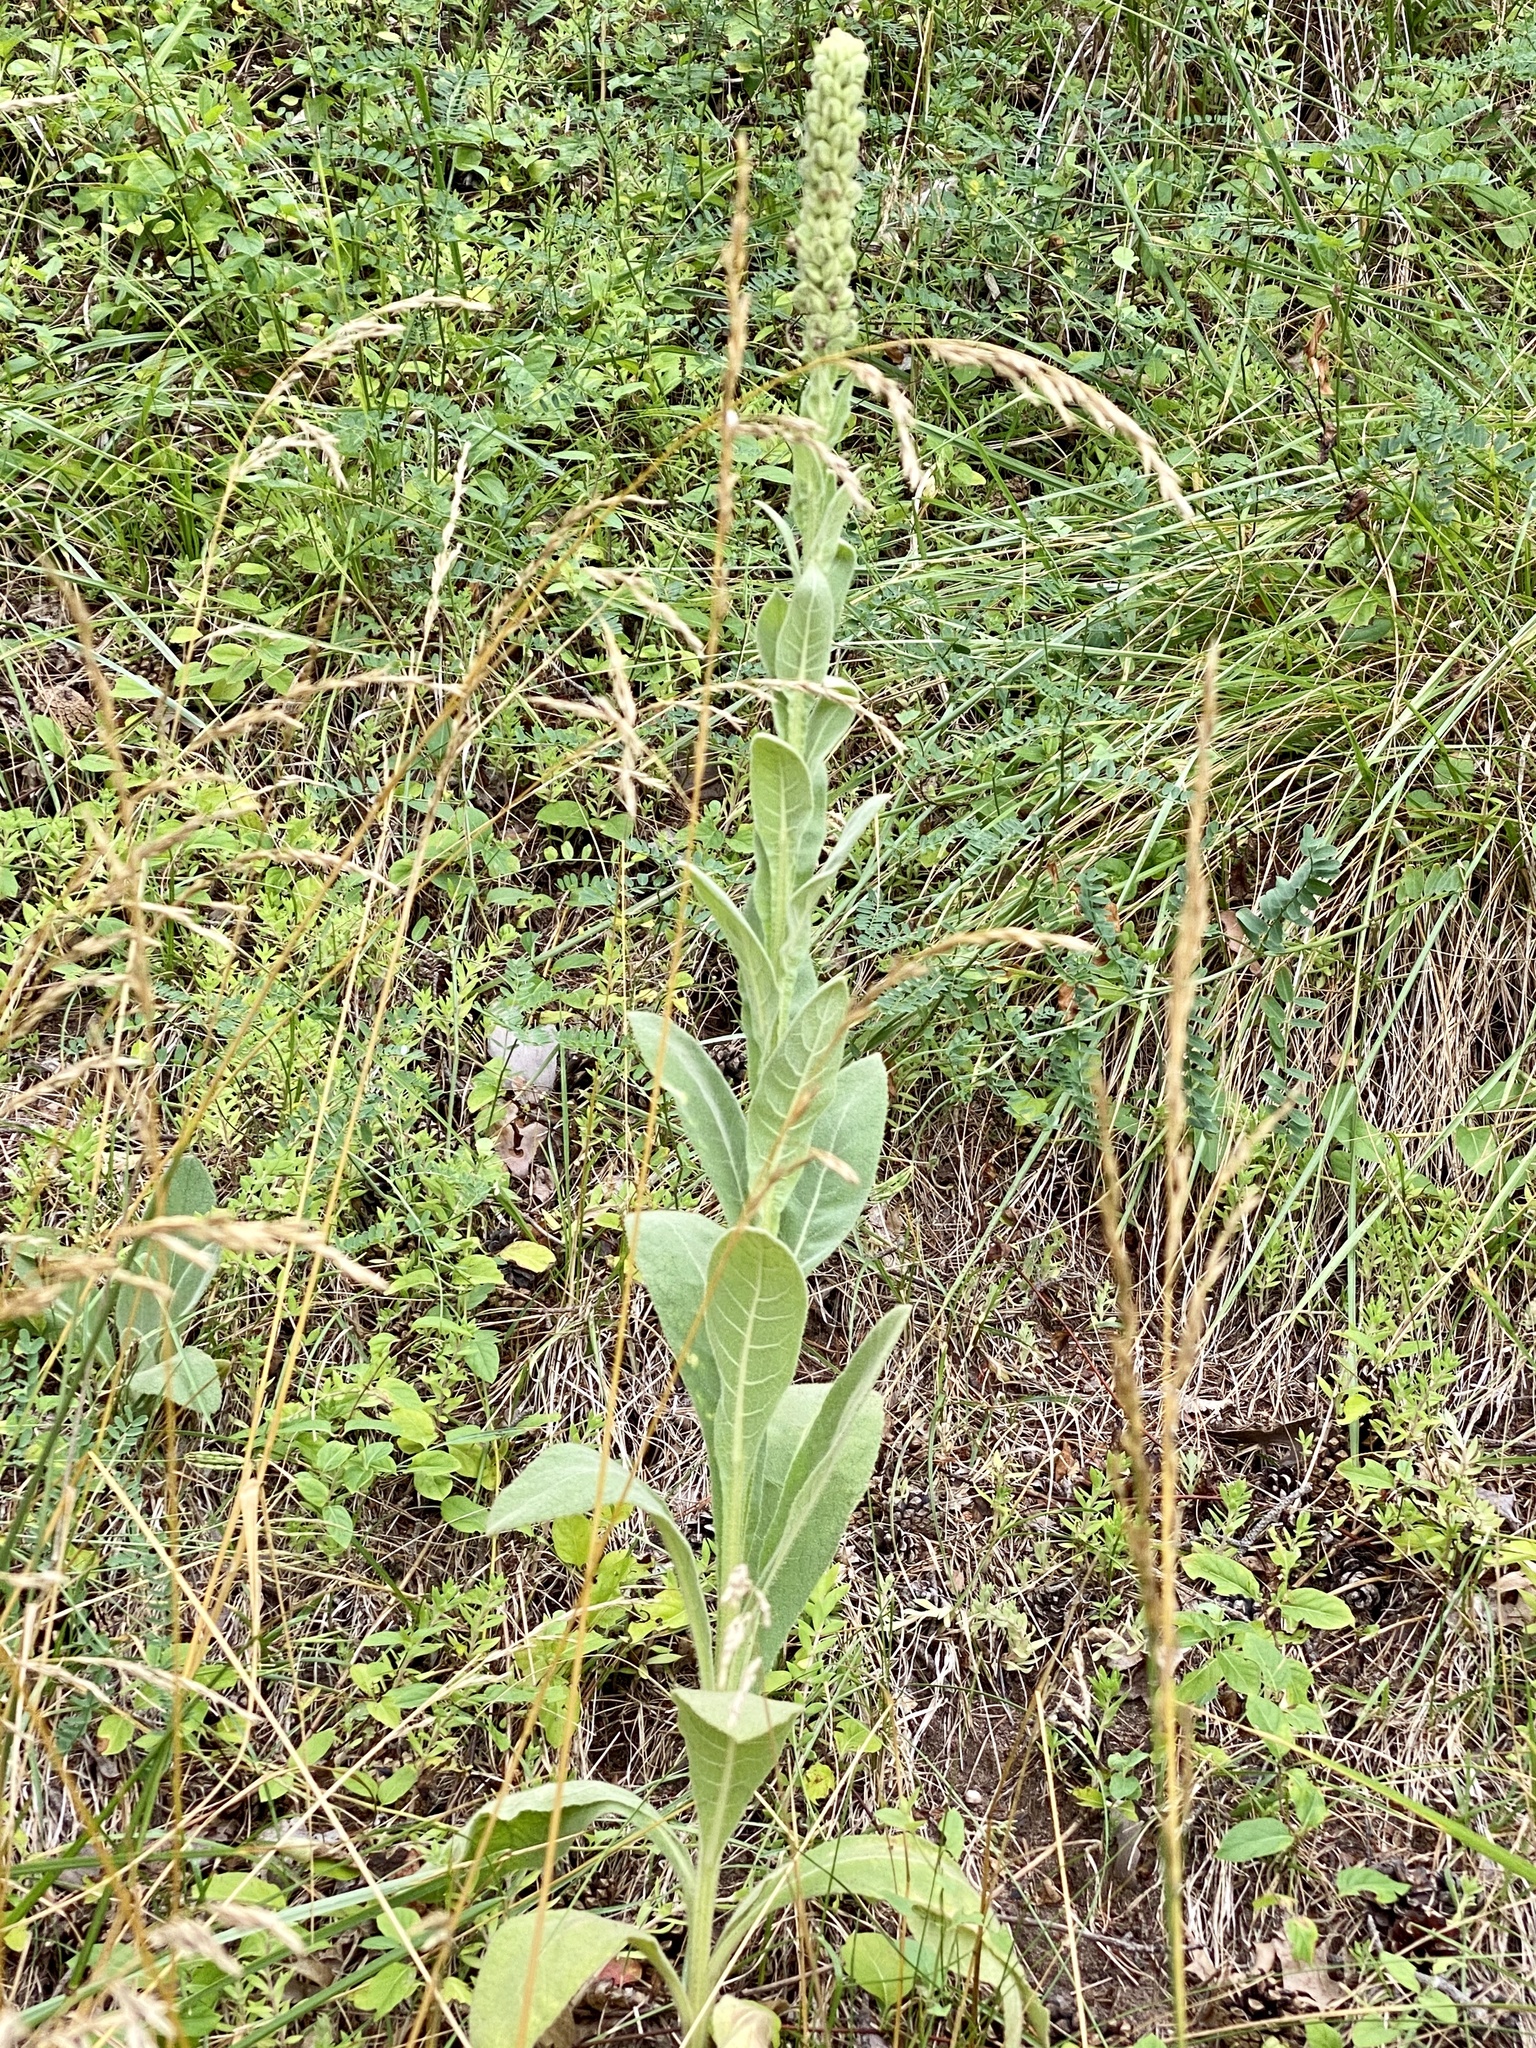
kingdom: Plantae
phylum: Tracheophyta
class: Magnoliopsida
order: Lamiales
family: Scrophulariaceae
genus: Verbascum
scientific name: Verbascum thapsus
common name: Common mullein
